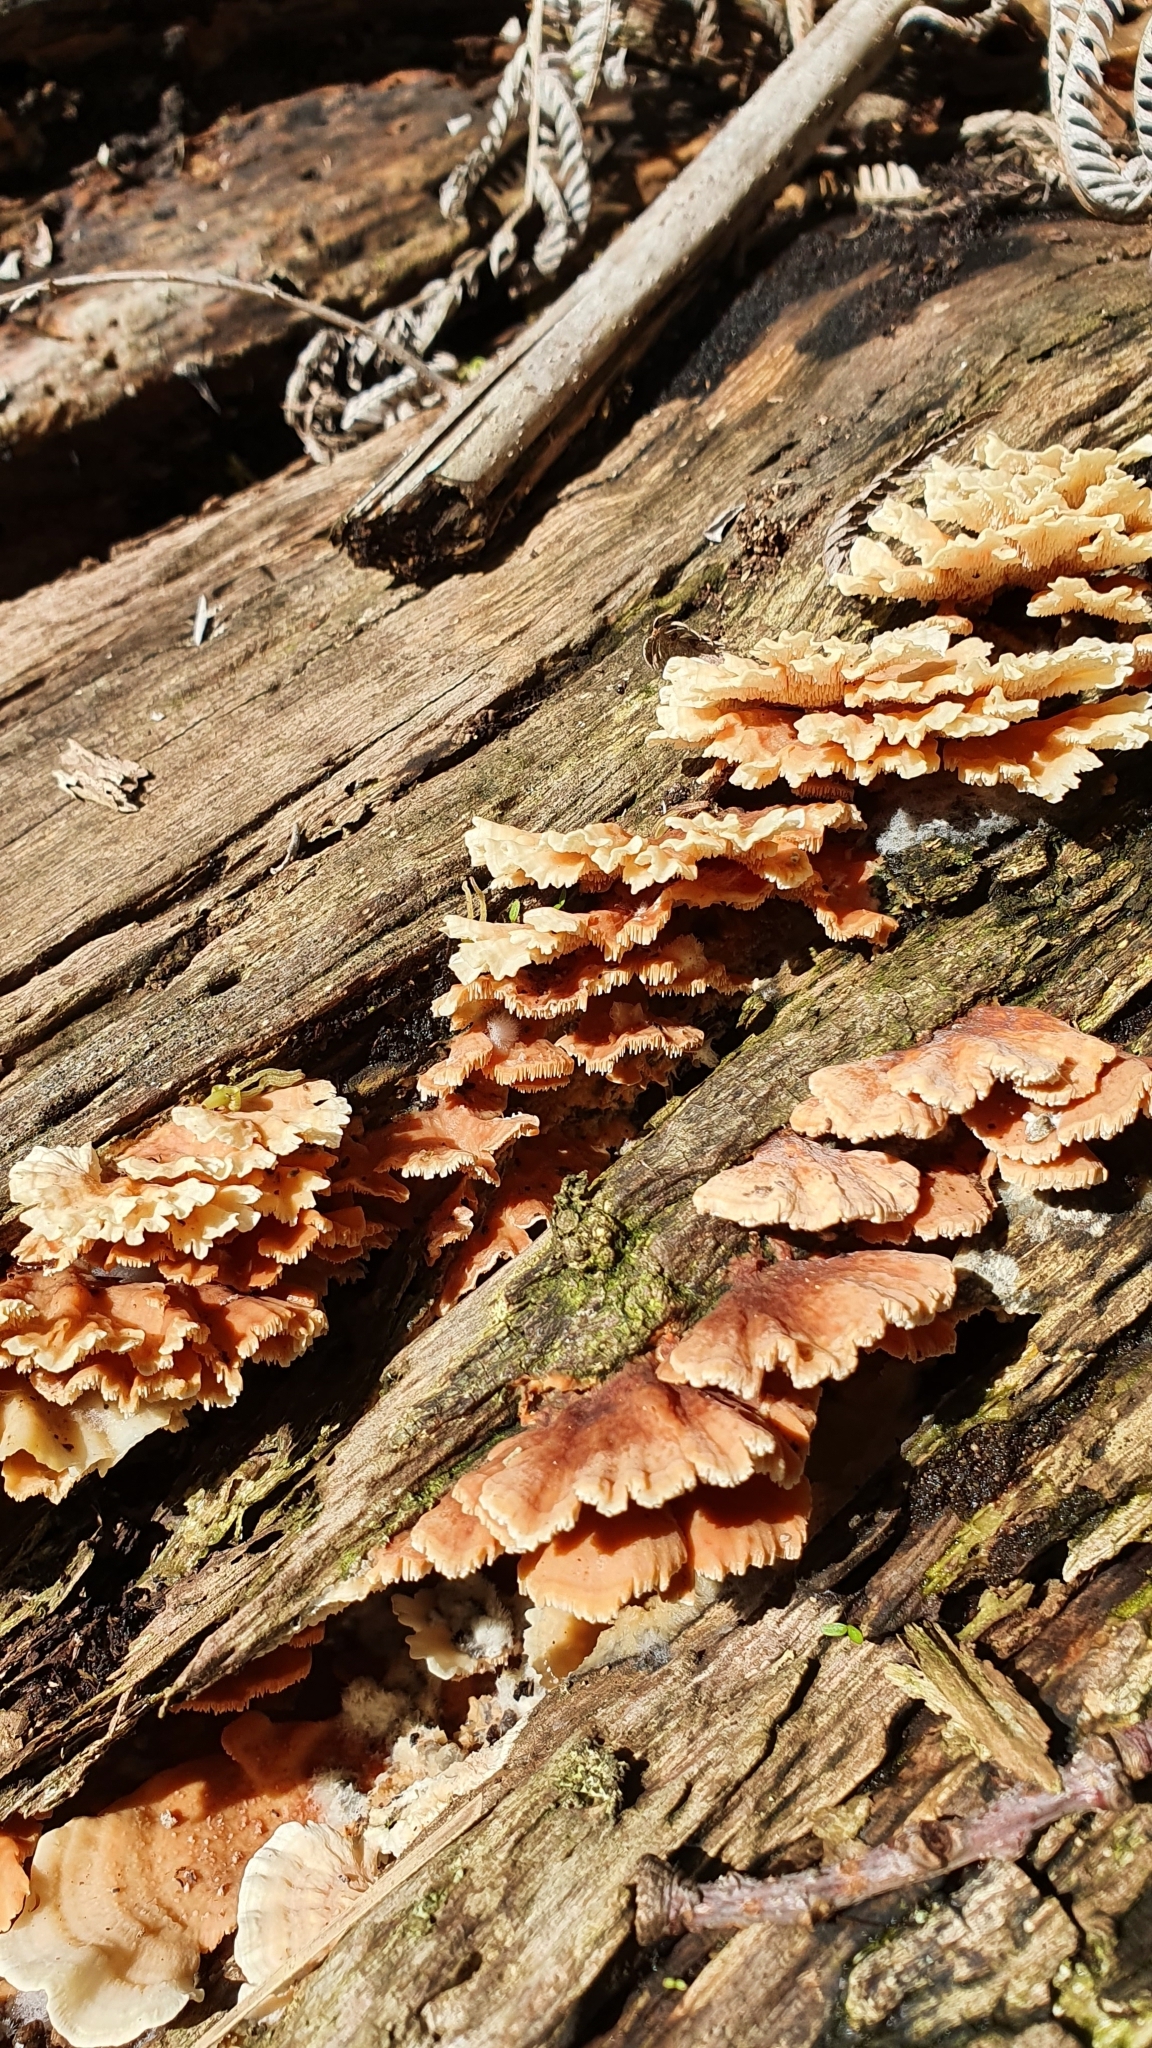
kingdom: Fungi
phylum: Basidiomycota
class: Agaricomycetes
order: Polyporales
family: Cerrenaceae
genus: Cerrena
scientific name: Cerrena zonata
